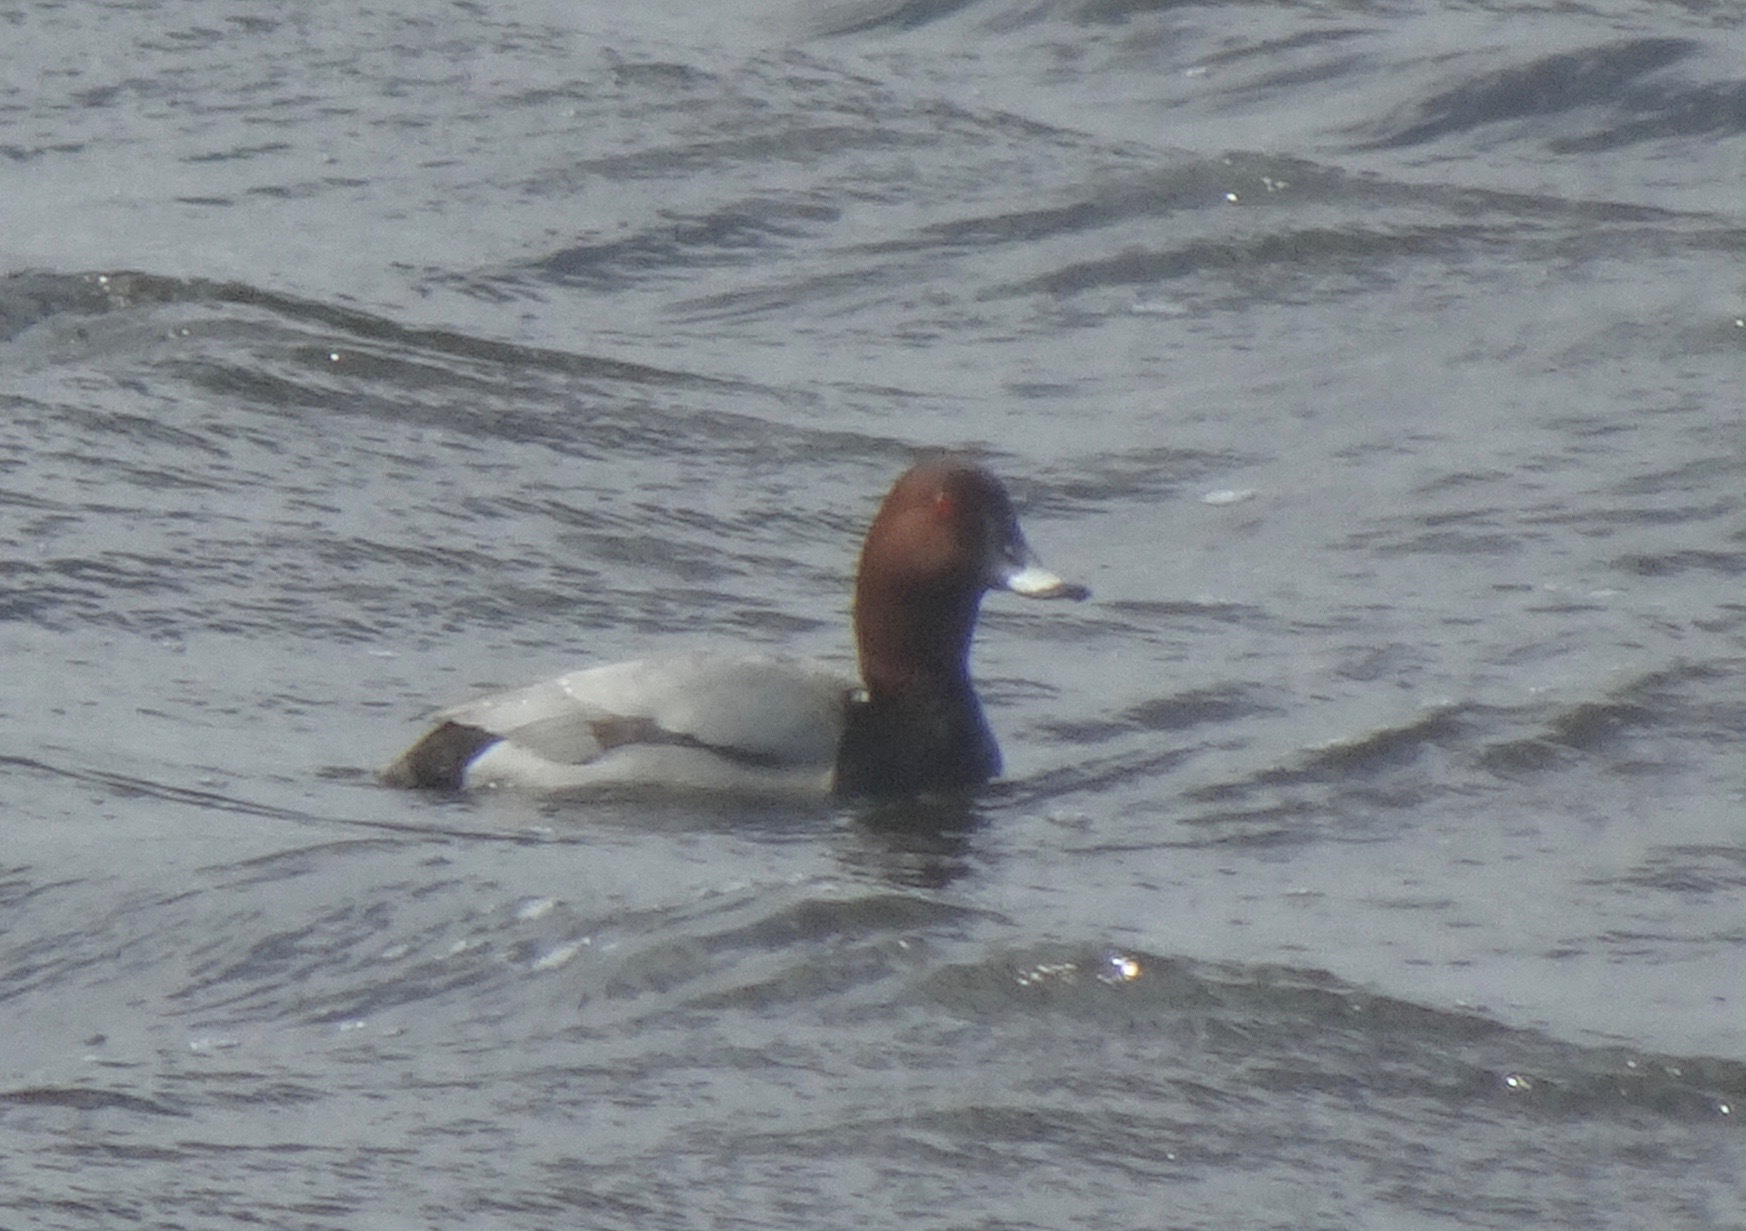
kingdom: Animalia
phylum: Chordata
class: Aves
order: Anseriformes
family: Anatidae
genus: Aythya
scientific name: Aythya ferina
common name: Common pochard
